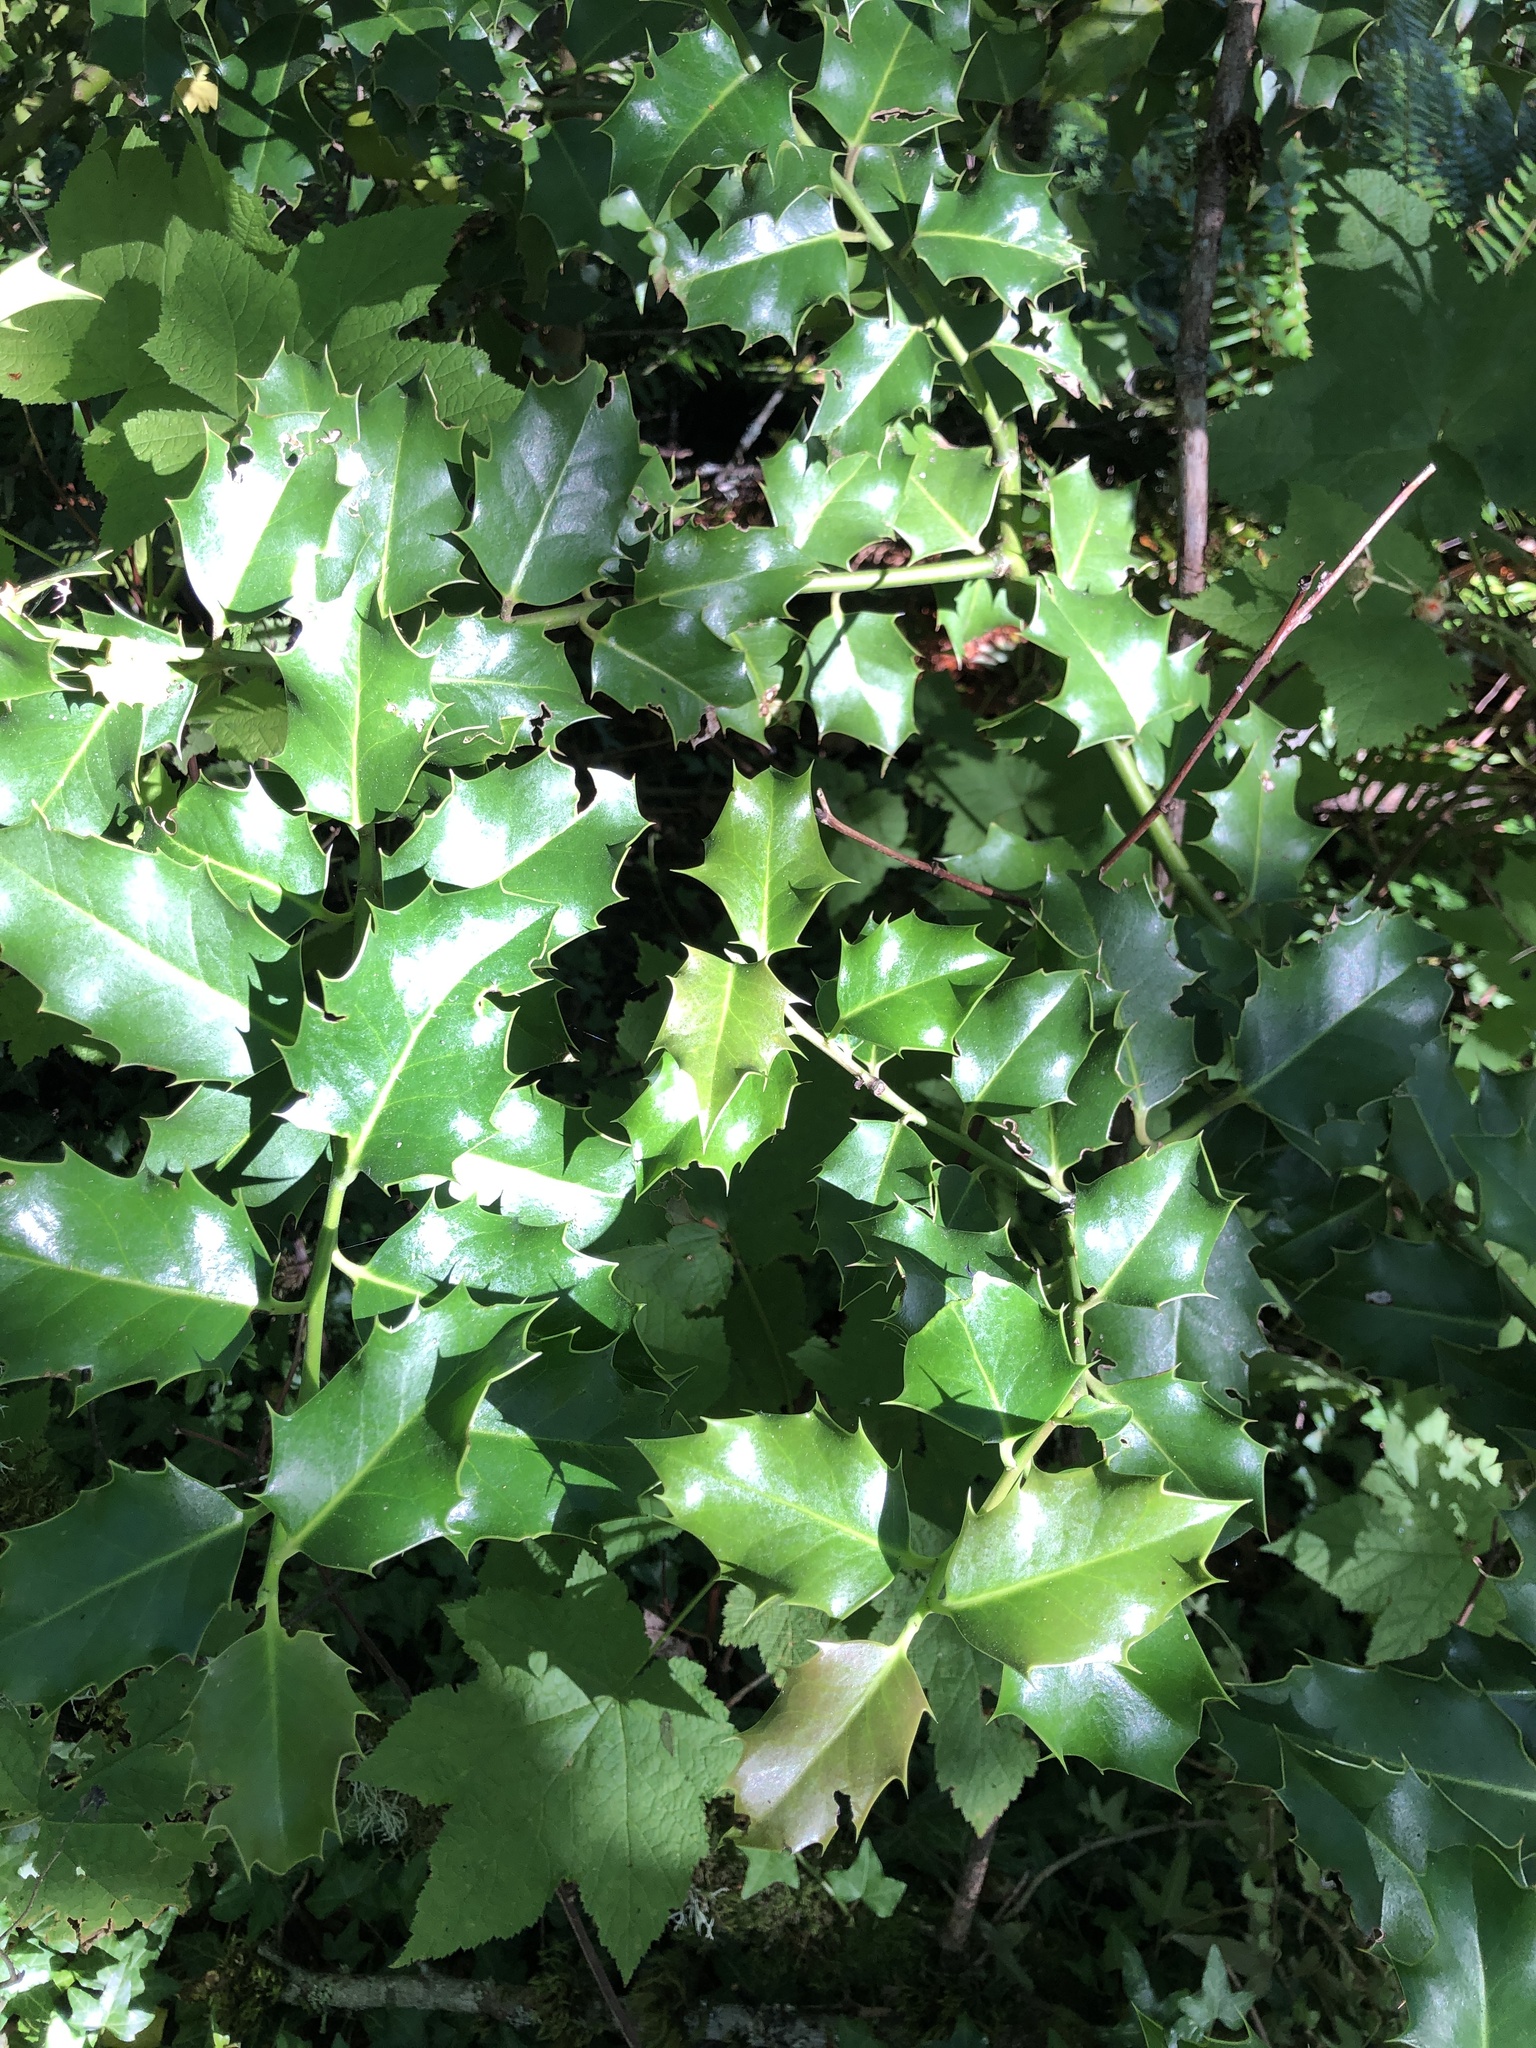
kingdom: Plantae
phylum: Tracheophyta
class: Magnoliopsida
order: Aquifoliales
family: Aquifoliaceae
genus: Ilex
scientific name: Ilex aquifolium
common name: English holly
